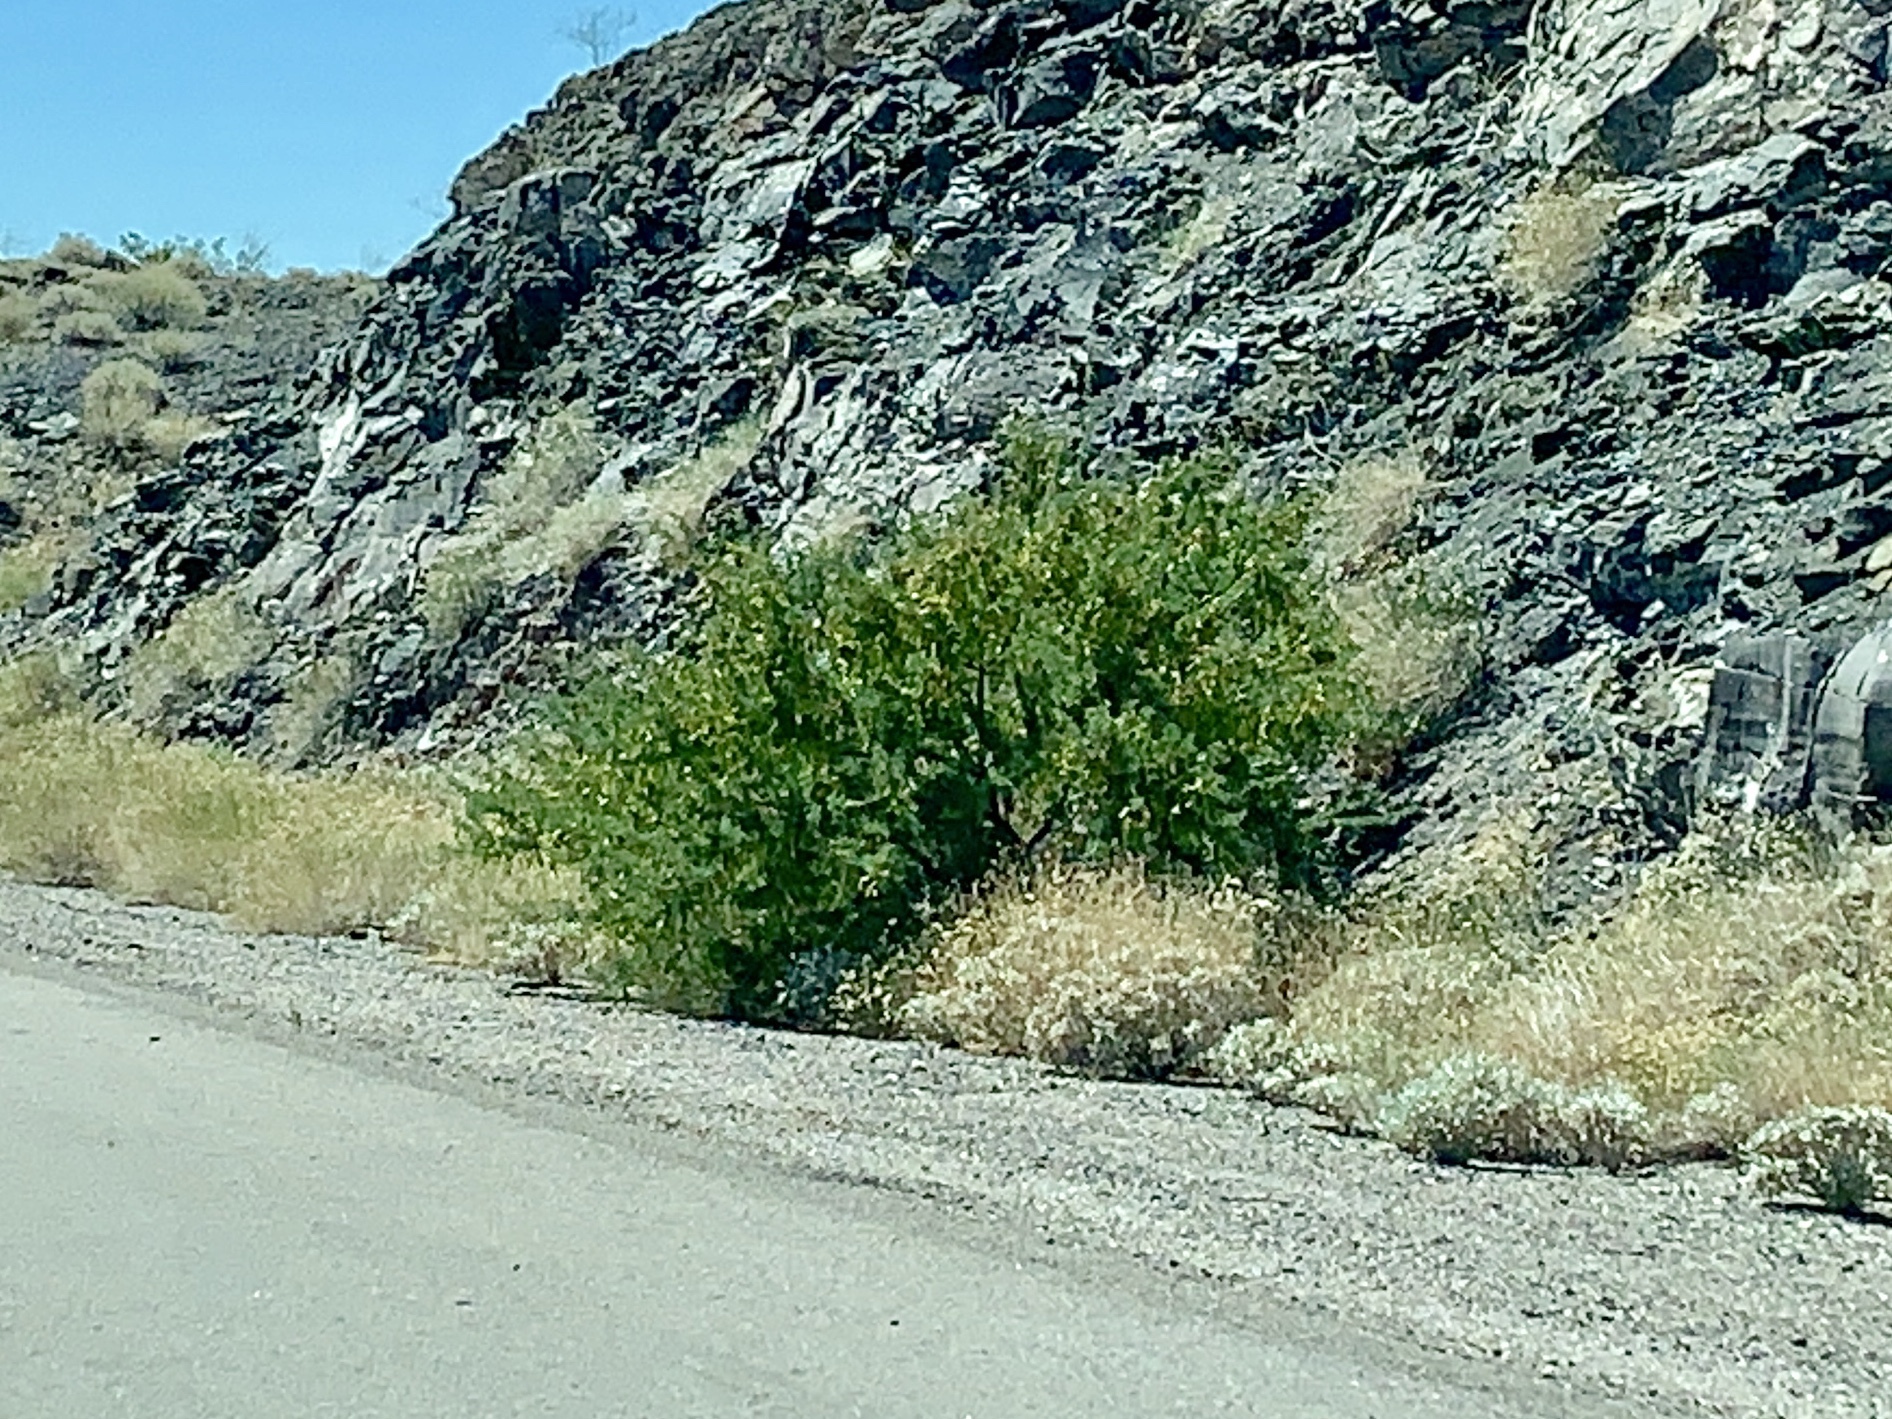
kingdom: Plantae
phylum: Tracheophyta
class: Magnoliopsida
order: Fabales
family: Fabaceae
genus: Senegalia
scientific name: Senegalia greggii
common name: Texas-mimosa
